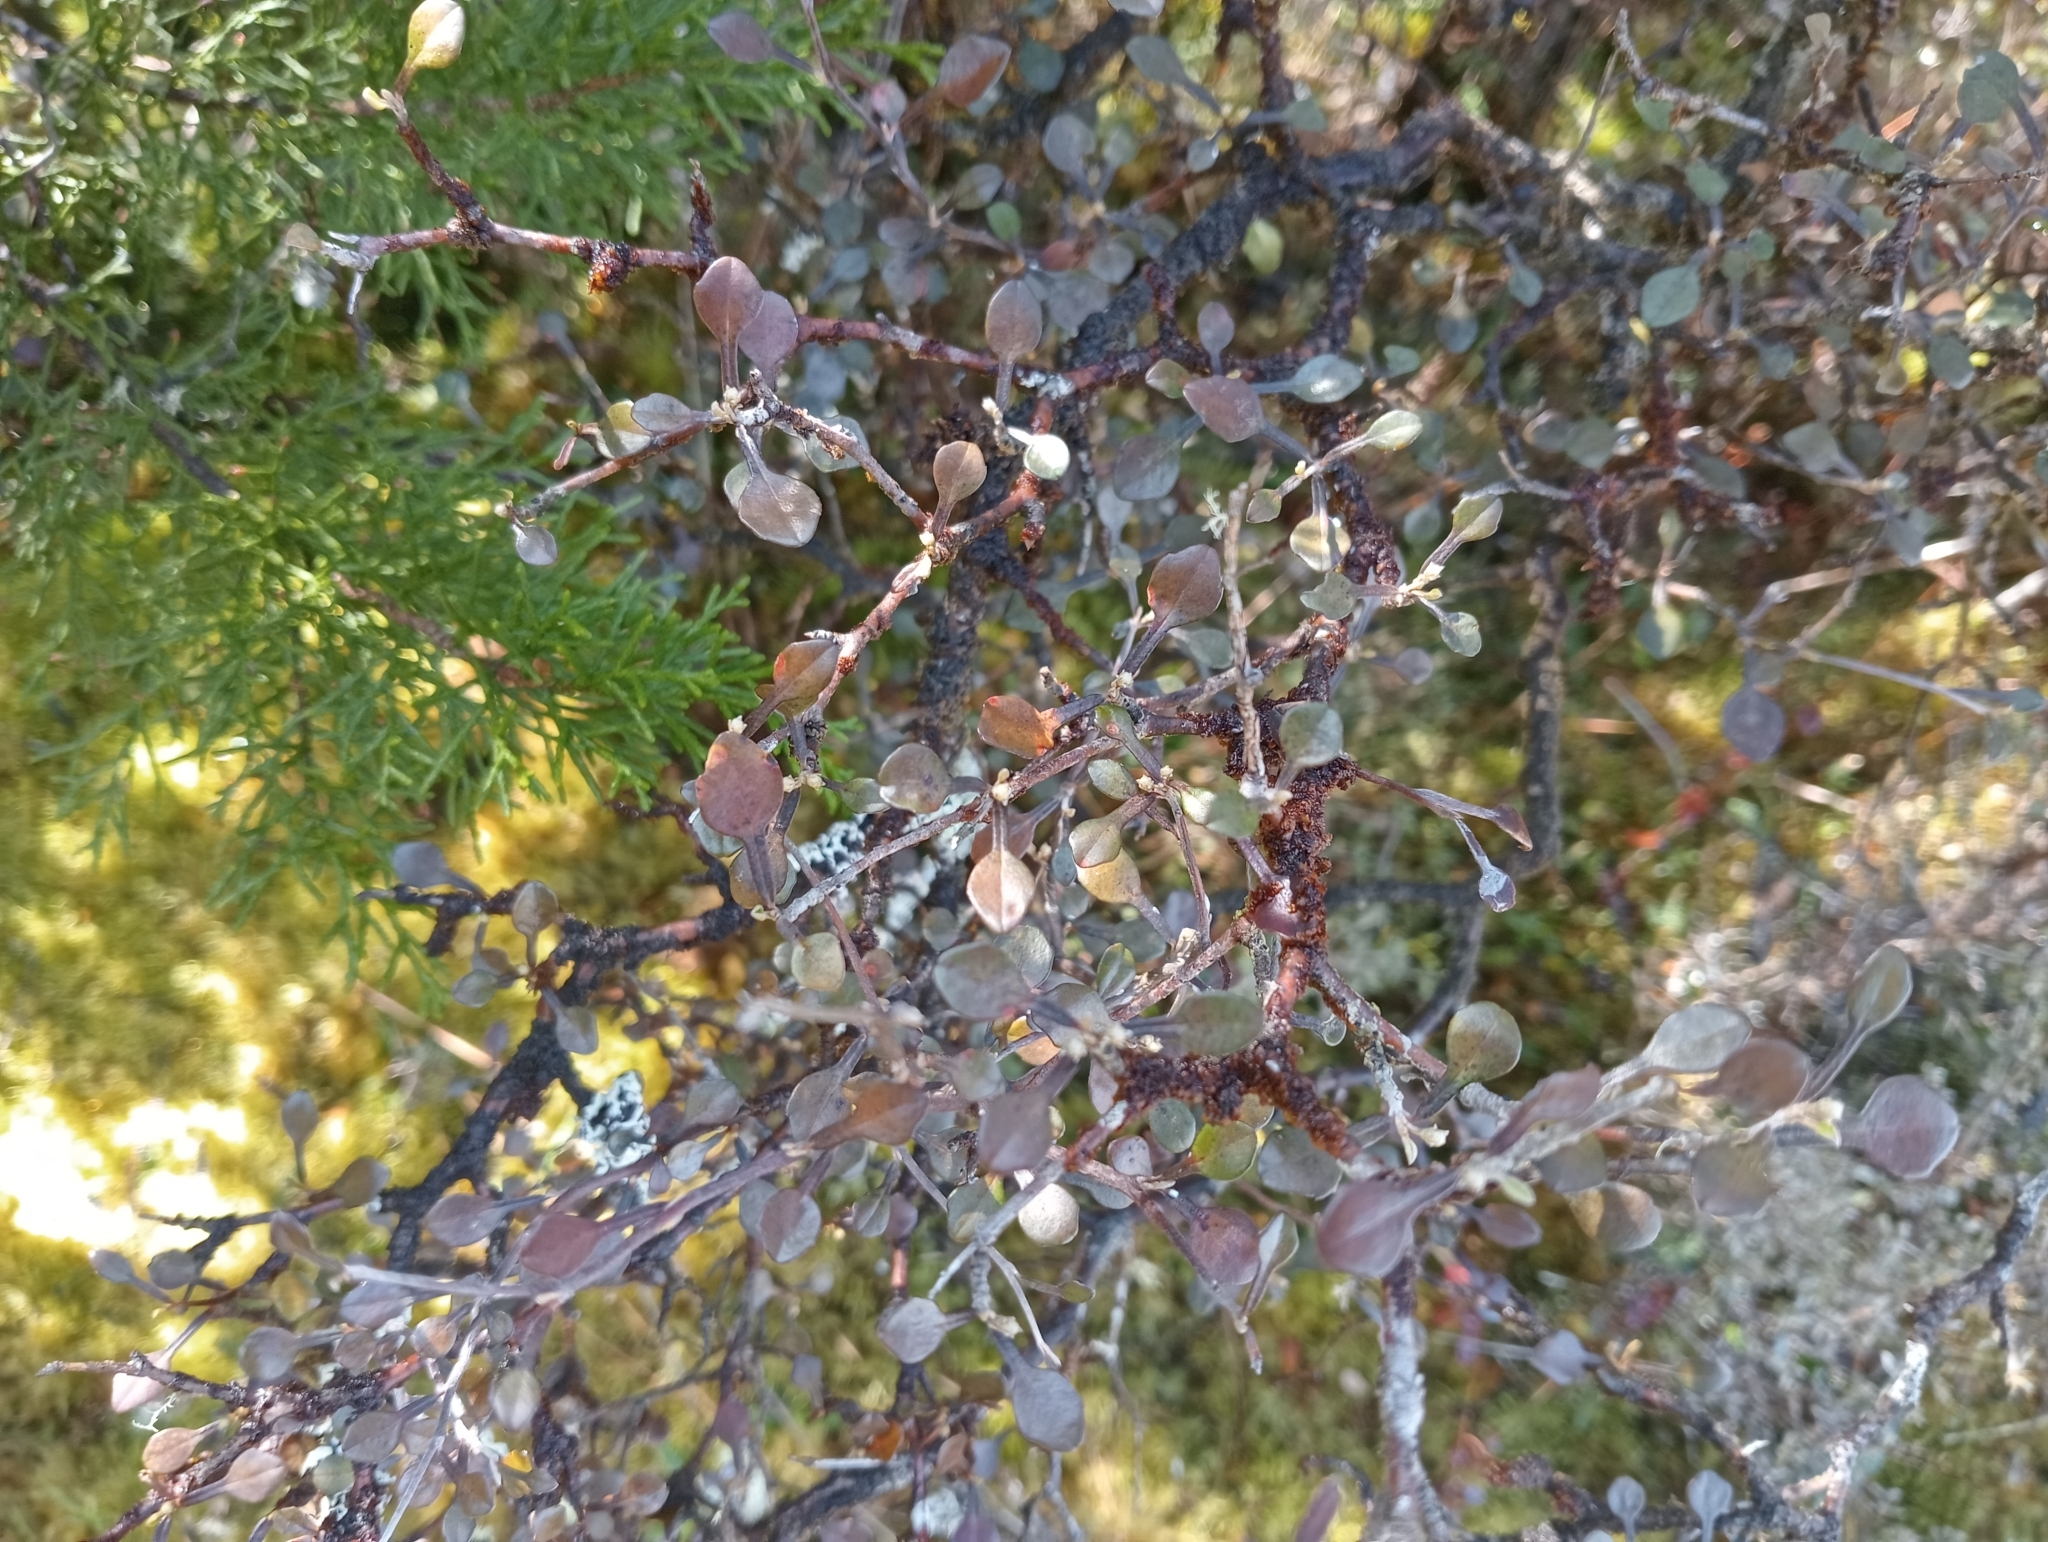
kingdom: Plantae
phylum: Tracheophyta
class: Magnoliopsida
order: Asterales
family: Argophyllaceae
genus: Corokia
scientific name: Corokia cotoneaster
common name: Wire nettingbush
